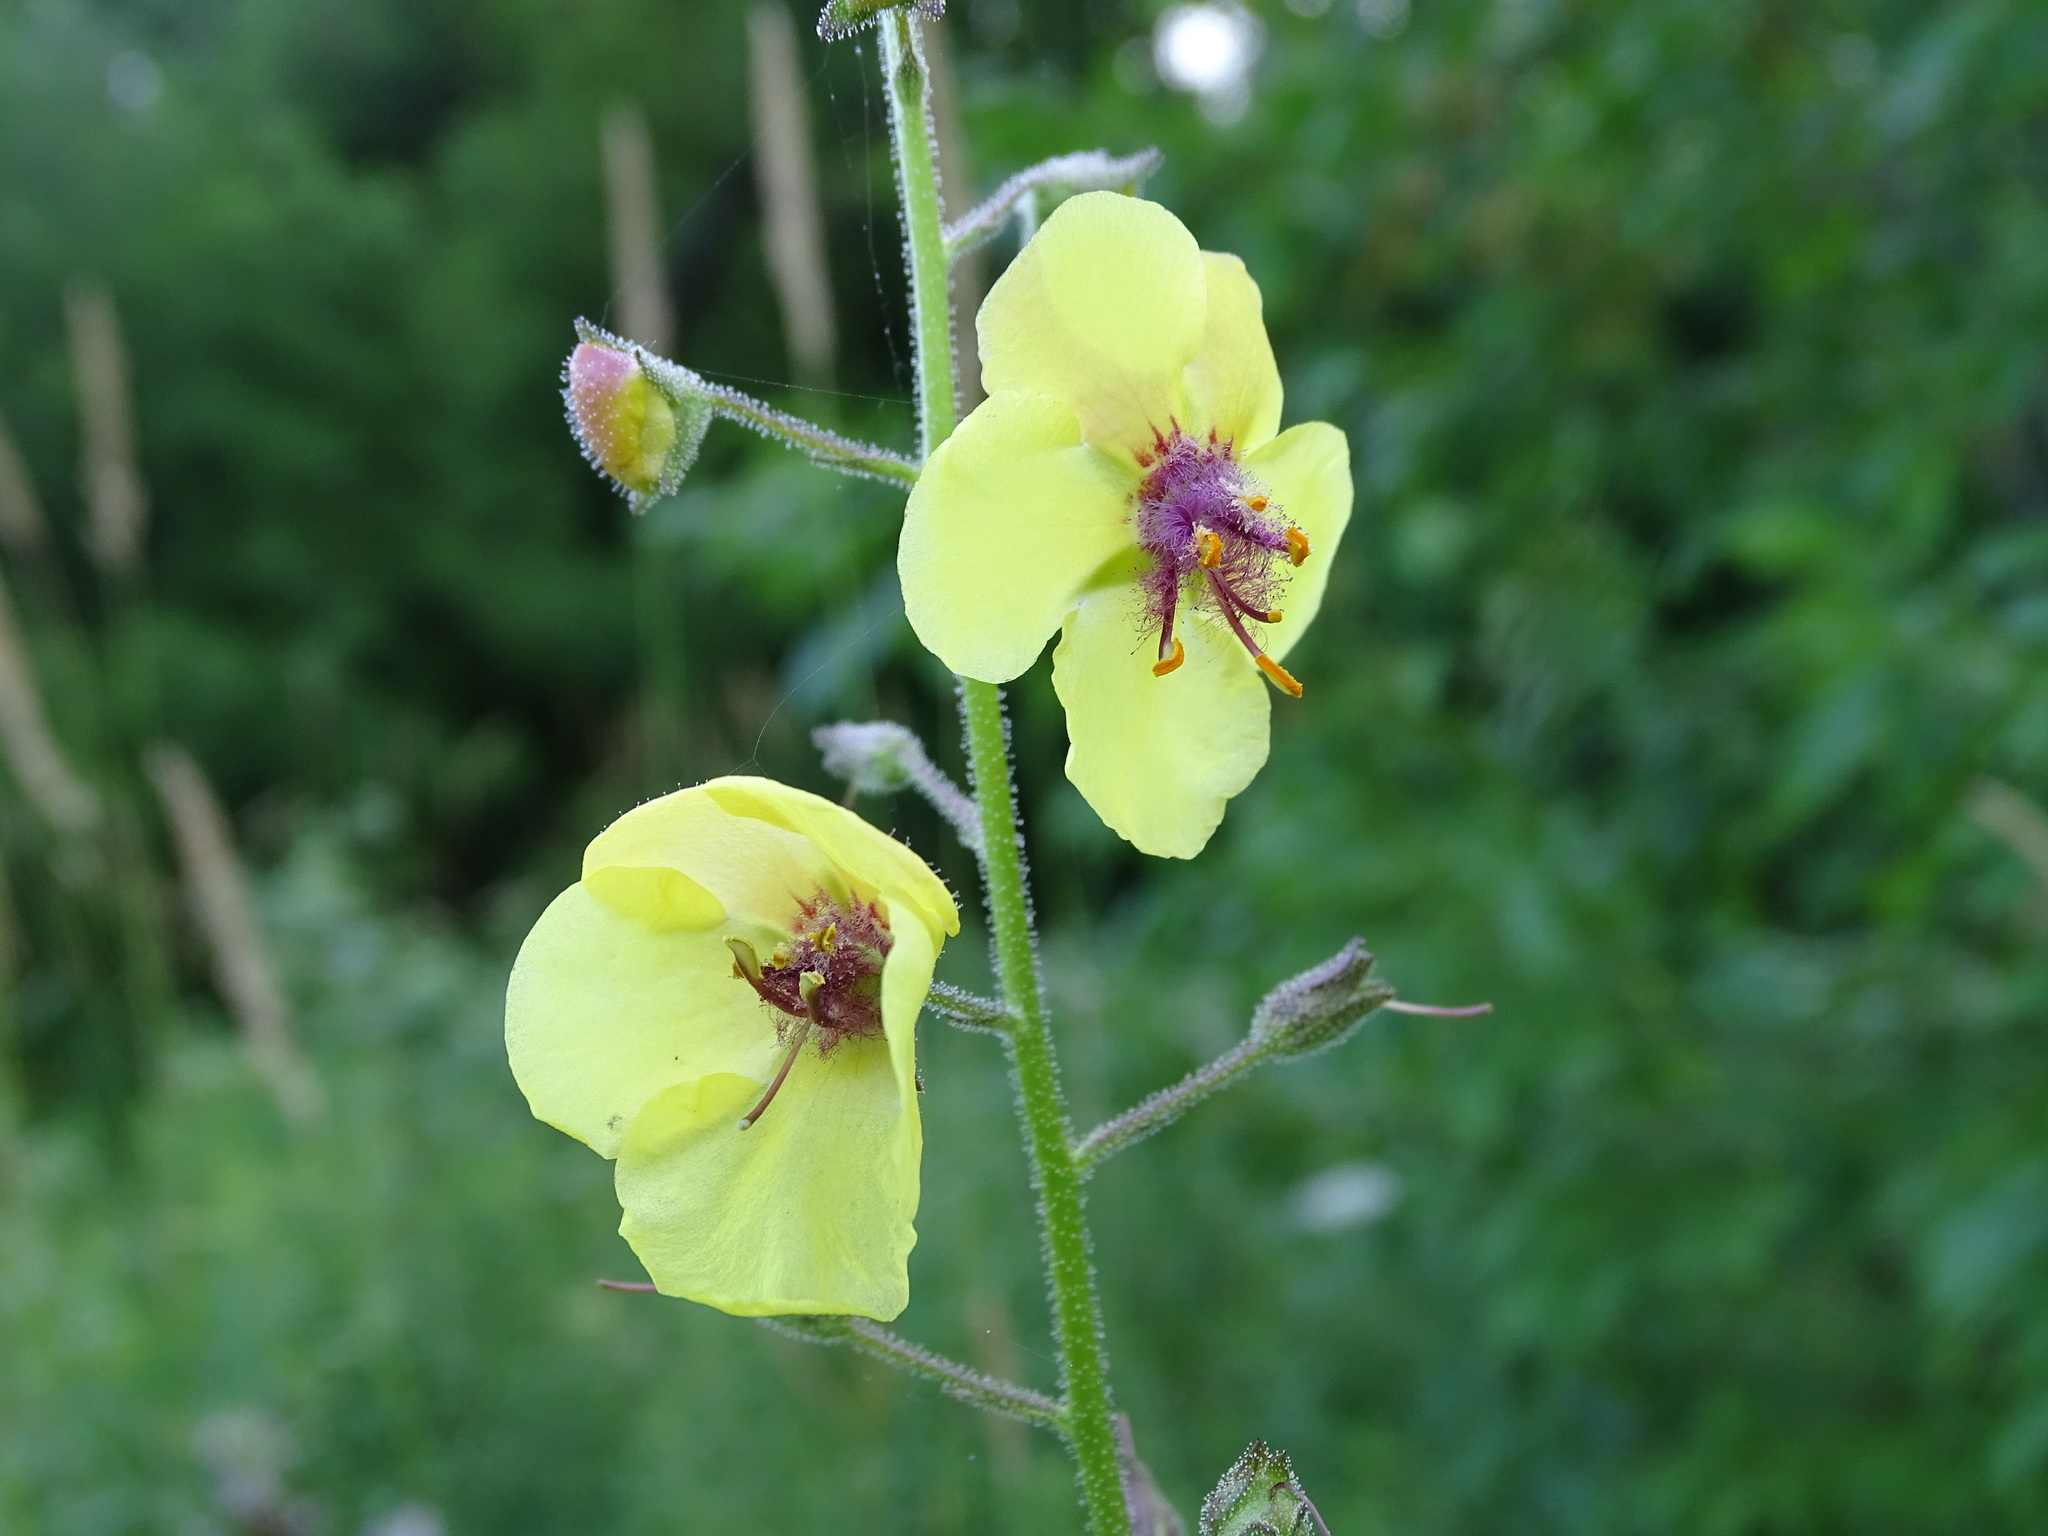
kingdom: Plantae
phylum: Tracheophyta
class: Magnoliopsida
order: Lamiales
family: Scrophulariaceae
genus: Verbascum
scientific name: Verbascum blattaria
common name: Moth mullein
